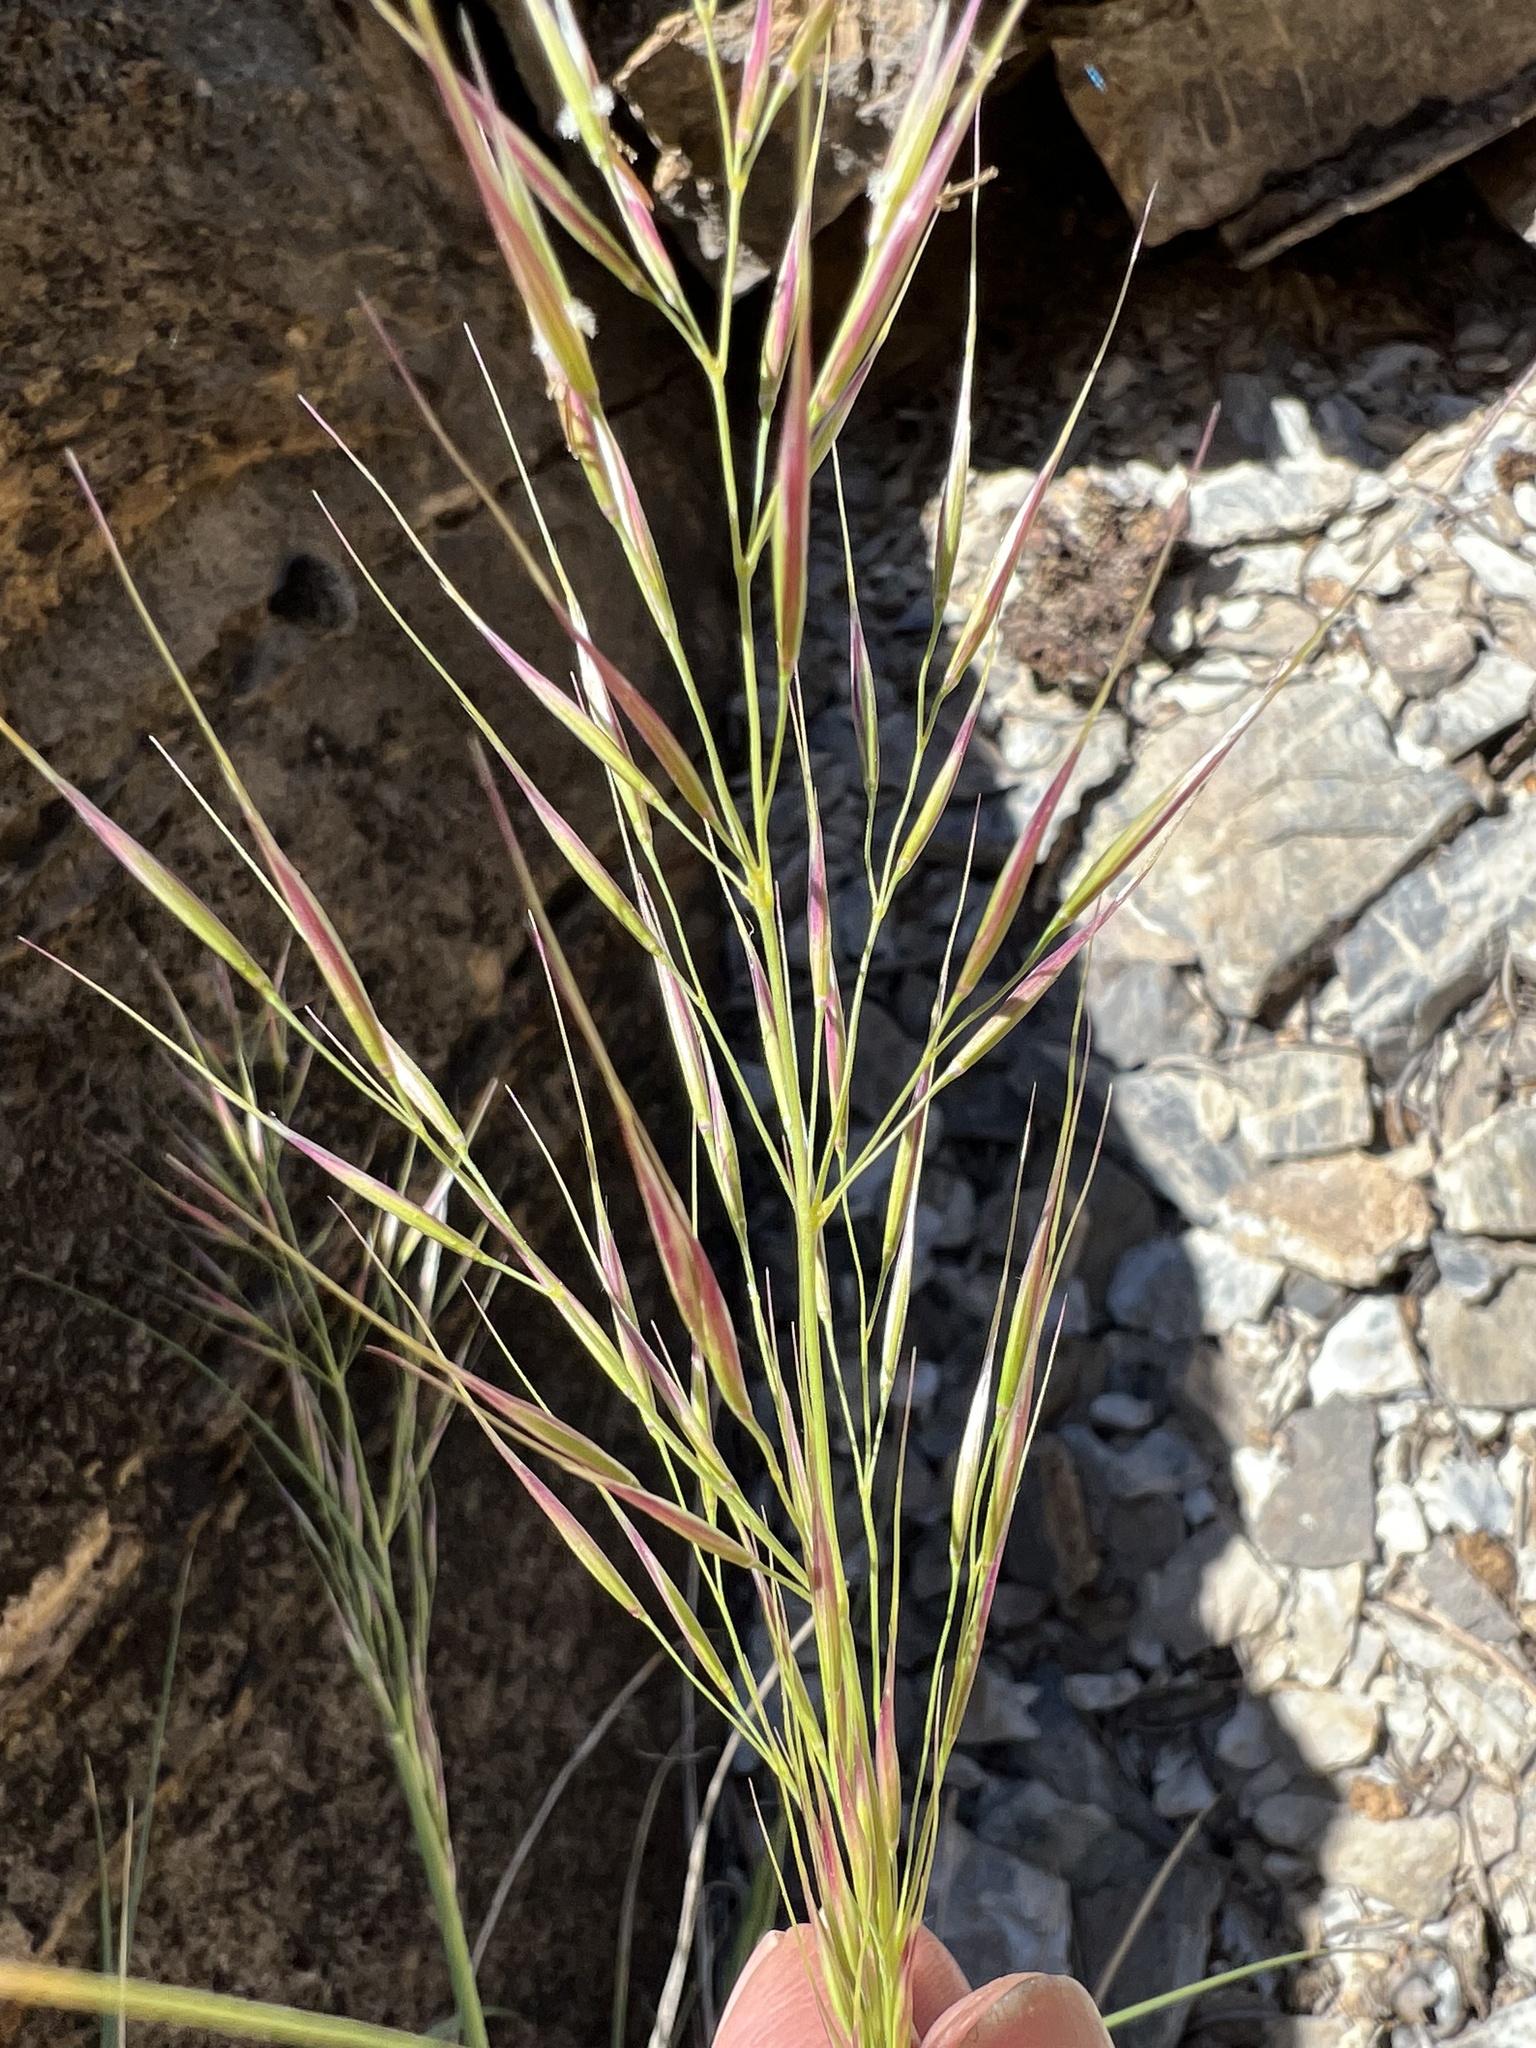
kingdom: Plantae
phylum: Tracheophyta
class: Liliopsida
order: Poales
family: Poaceae
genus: Eriocoma
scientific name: Eriocoma parishii
